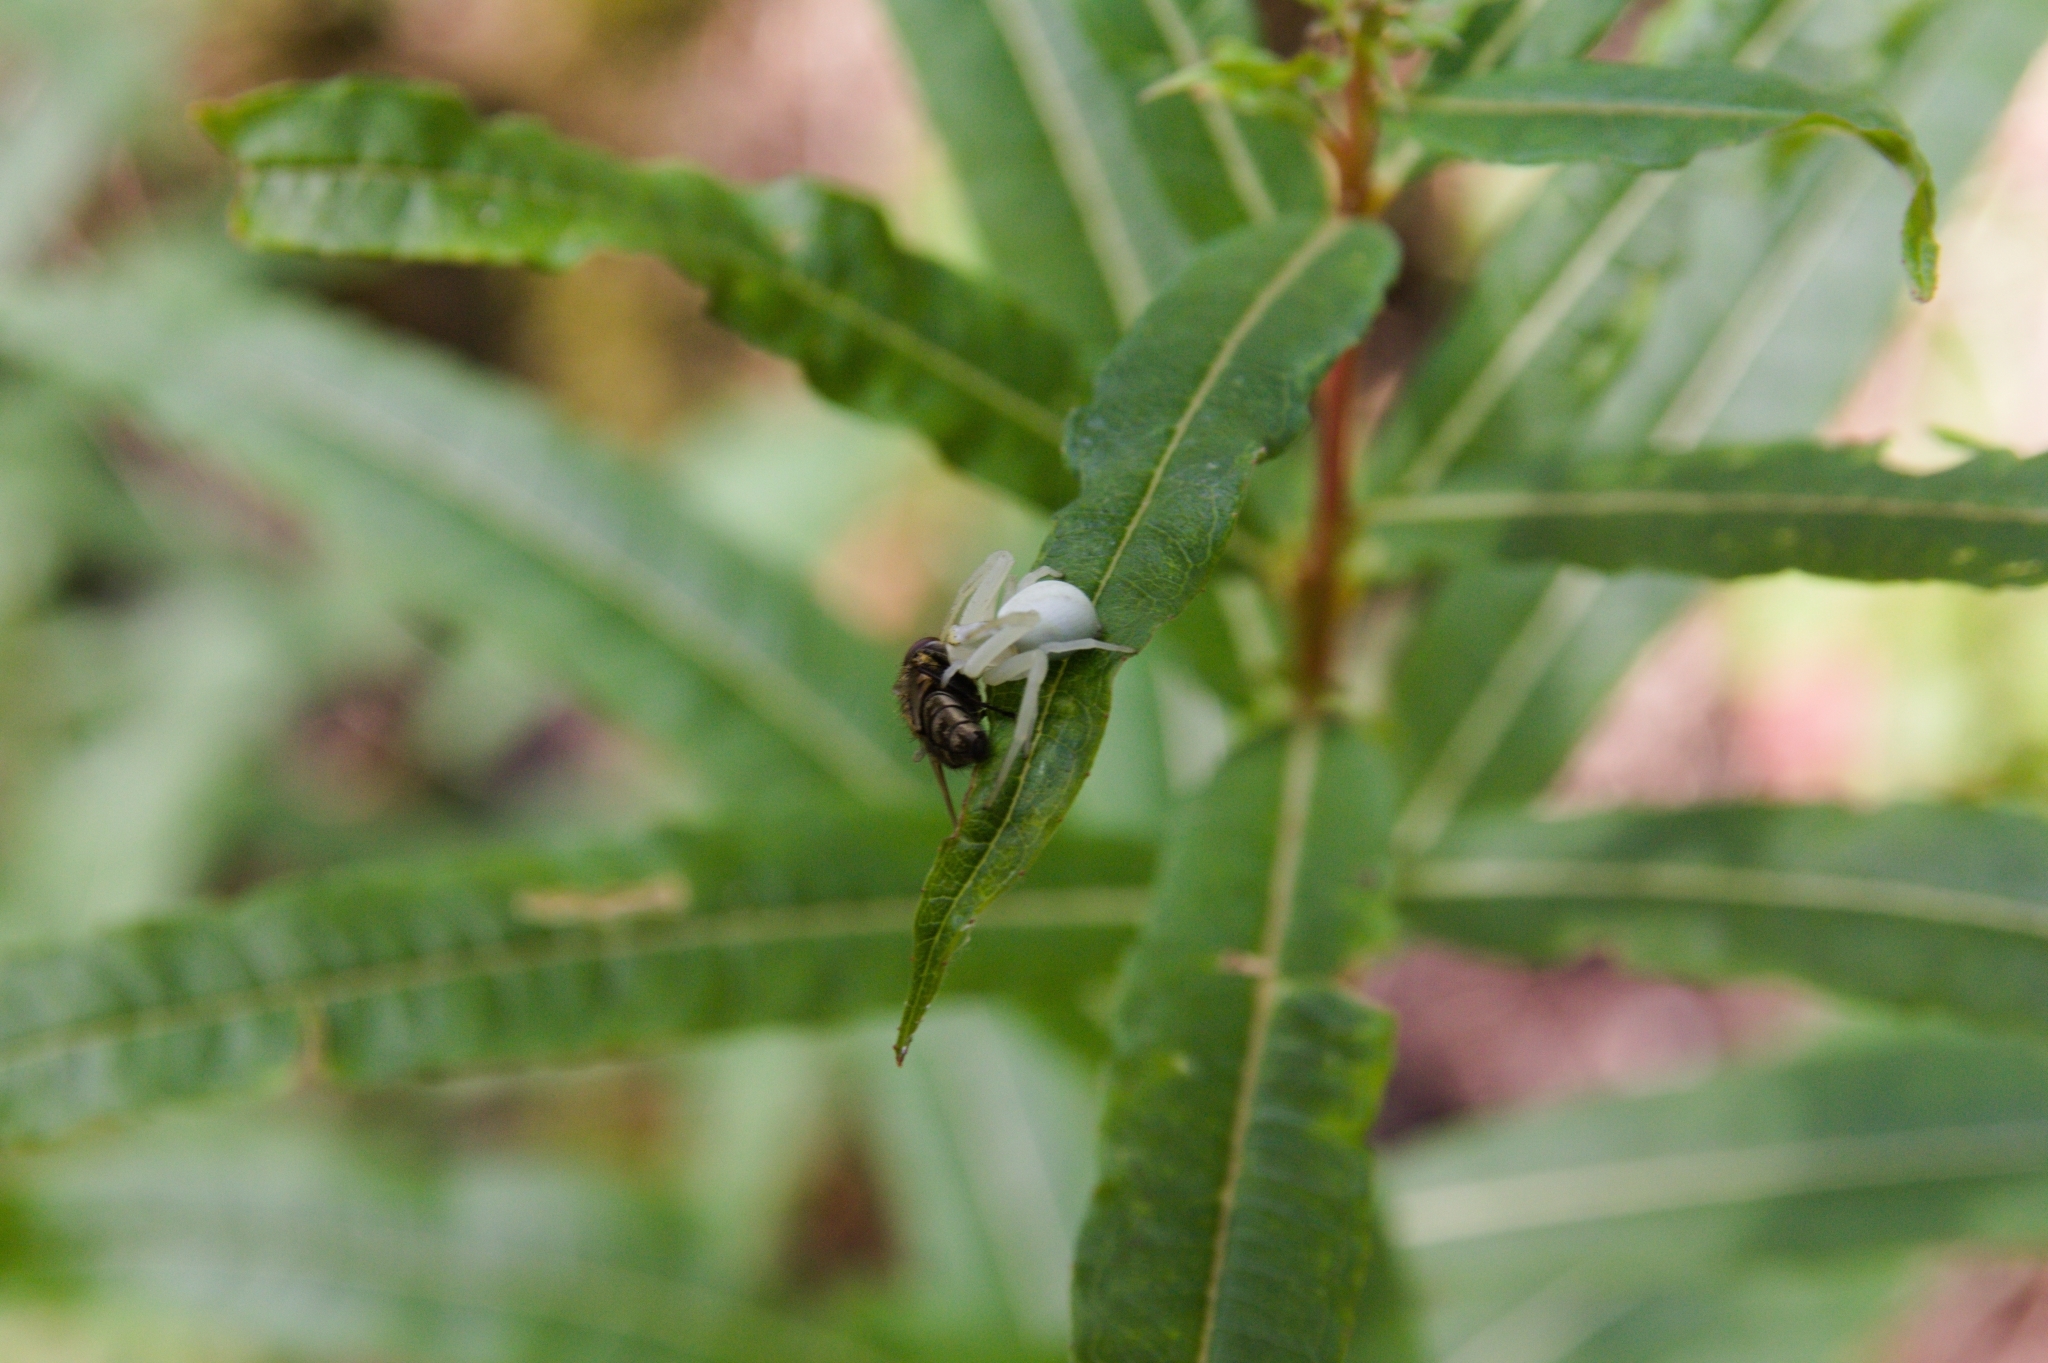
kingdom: Animalia
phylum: Arthropoda
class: Arachnida
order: Araneae
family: Thomisidae
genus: Misumena
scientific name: Misumena vatia
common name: Goldenrod crab spider
